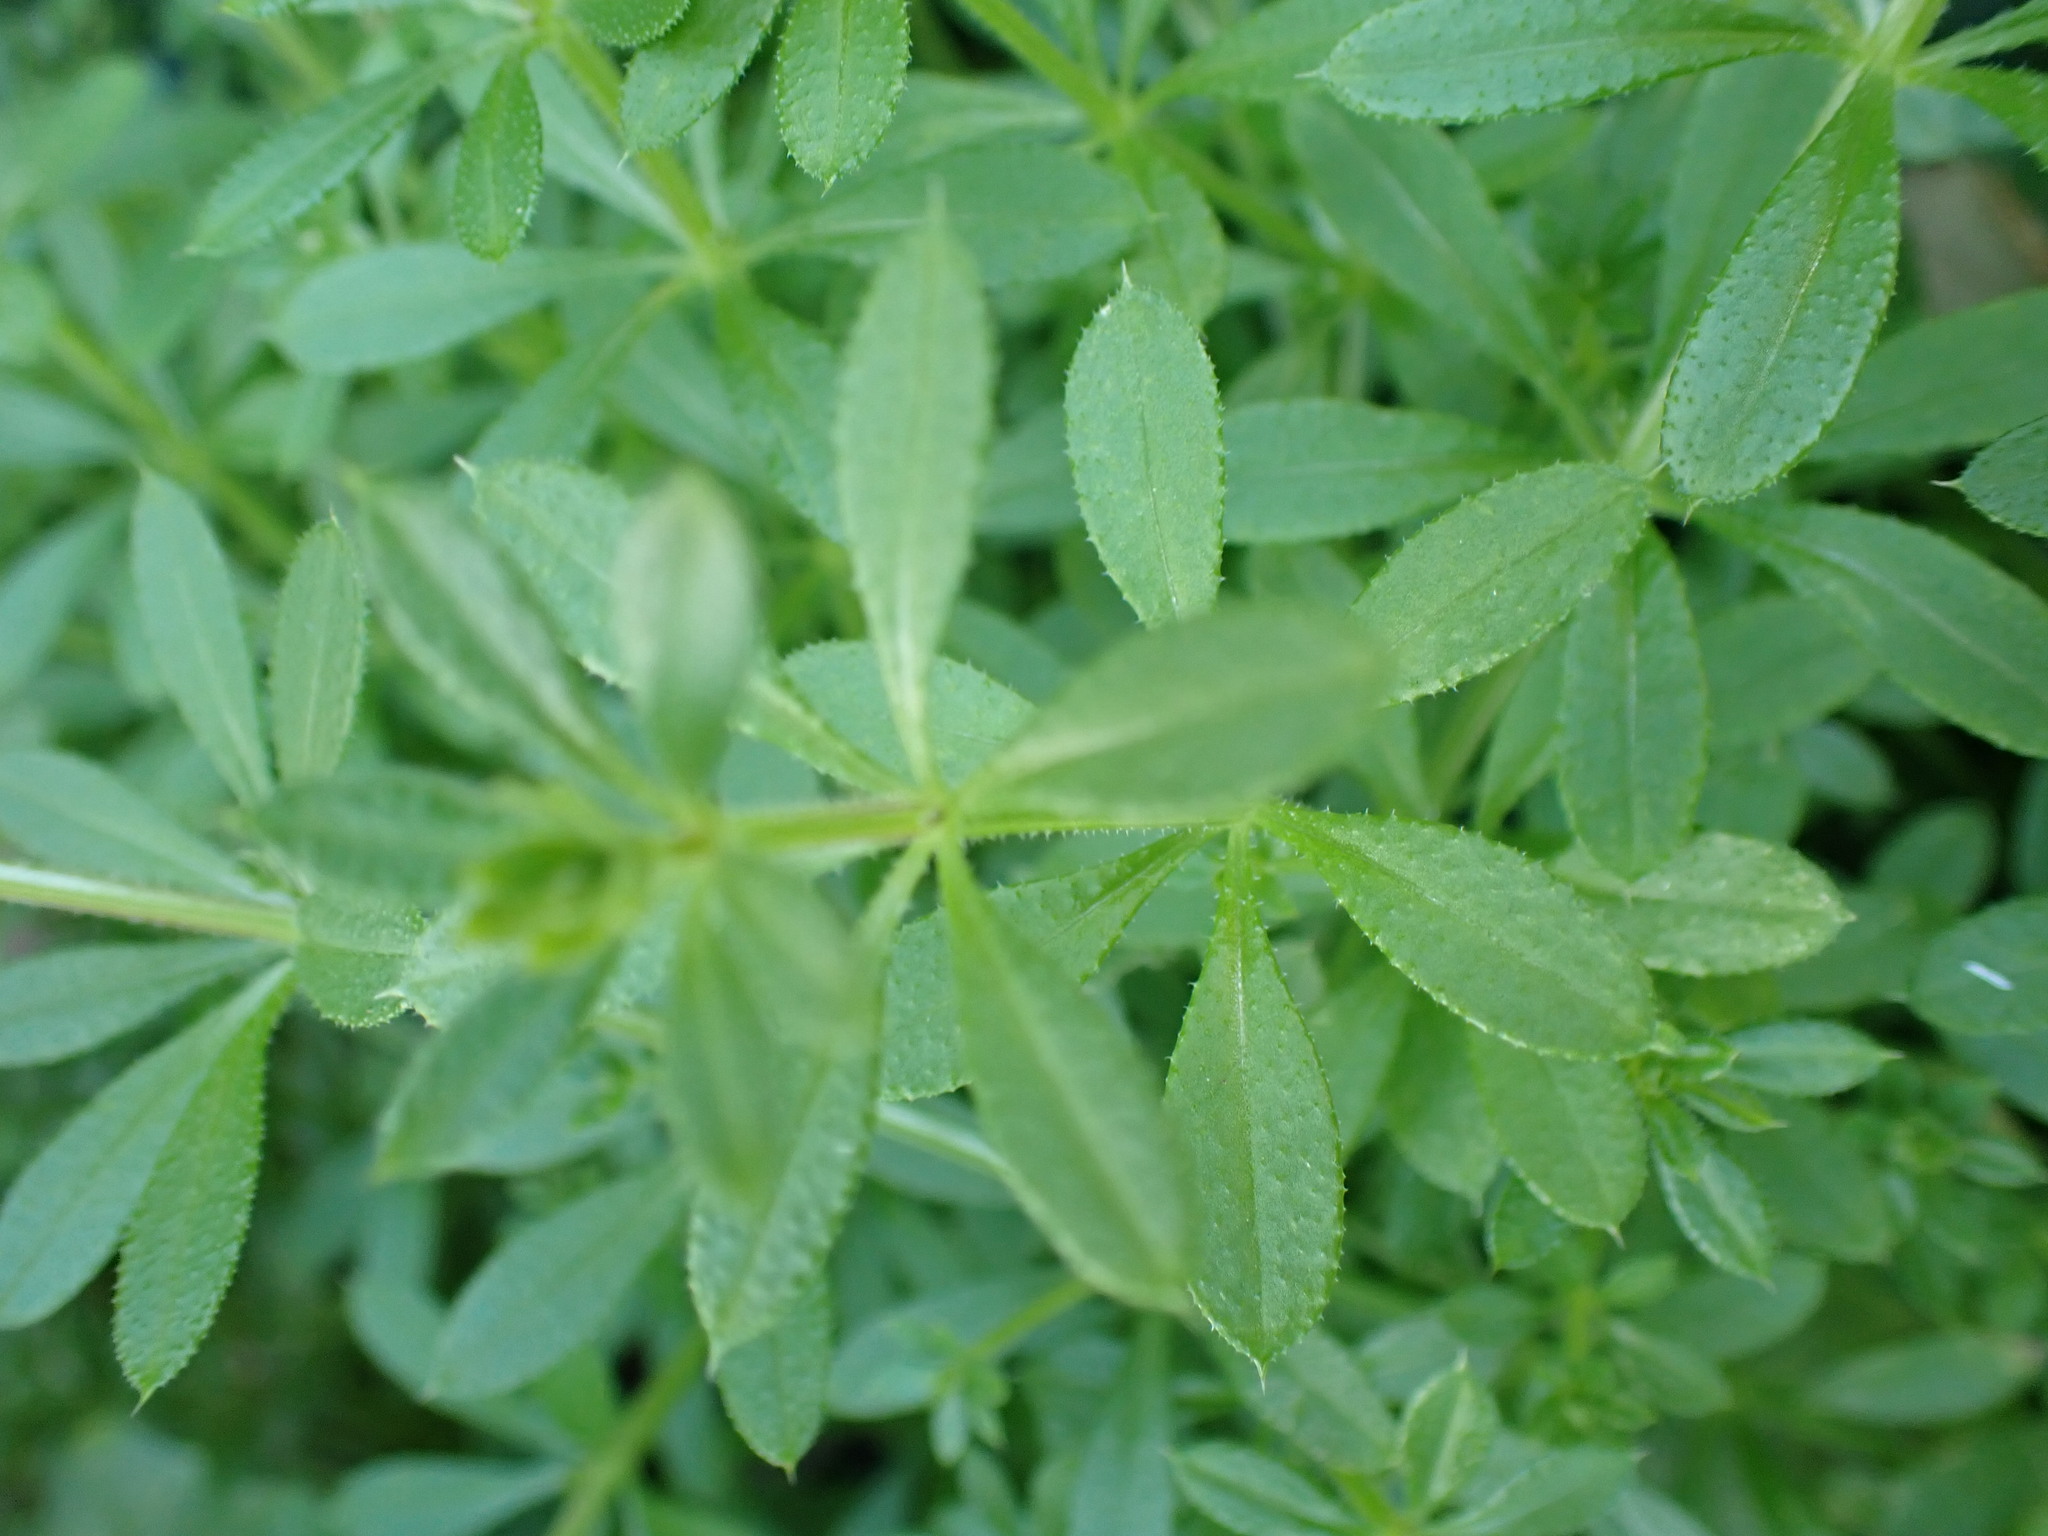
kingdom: Plantae
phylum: Tracheophyta
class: Magnoliopsida
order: Gentianales
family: Rubiaceae
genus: Galium
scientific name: Galium aparine
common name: Cleavers
